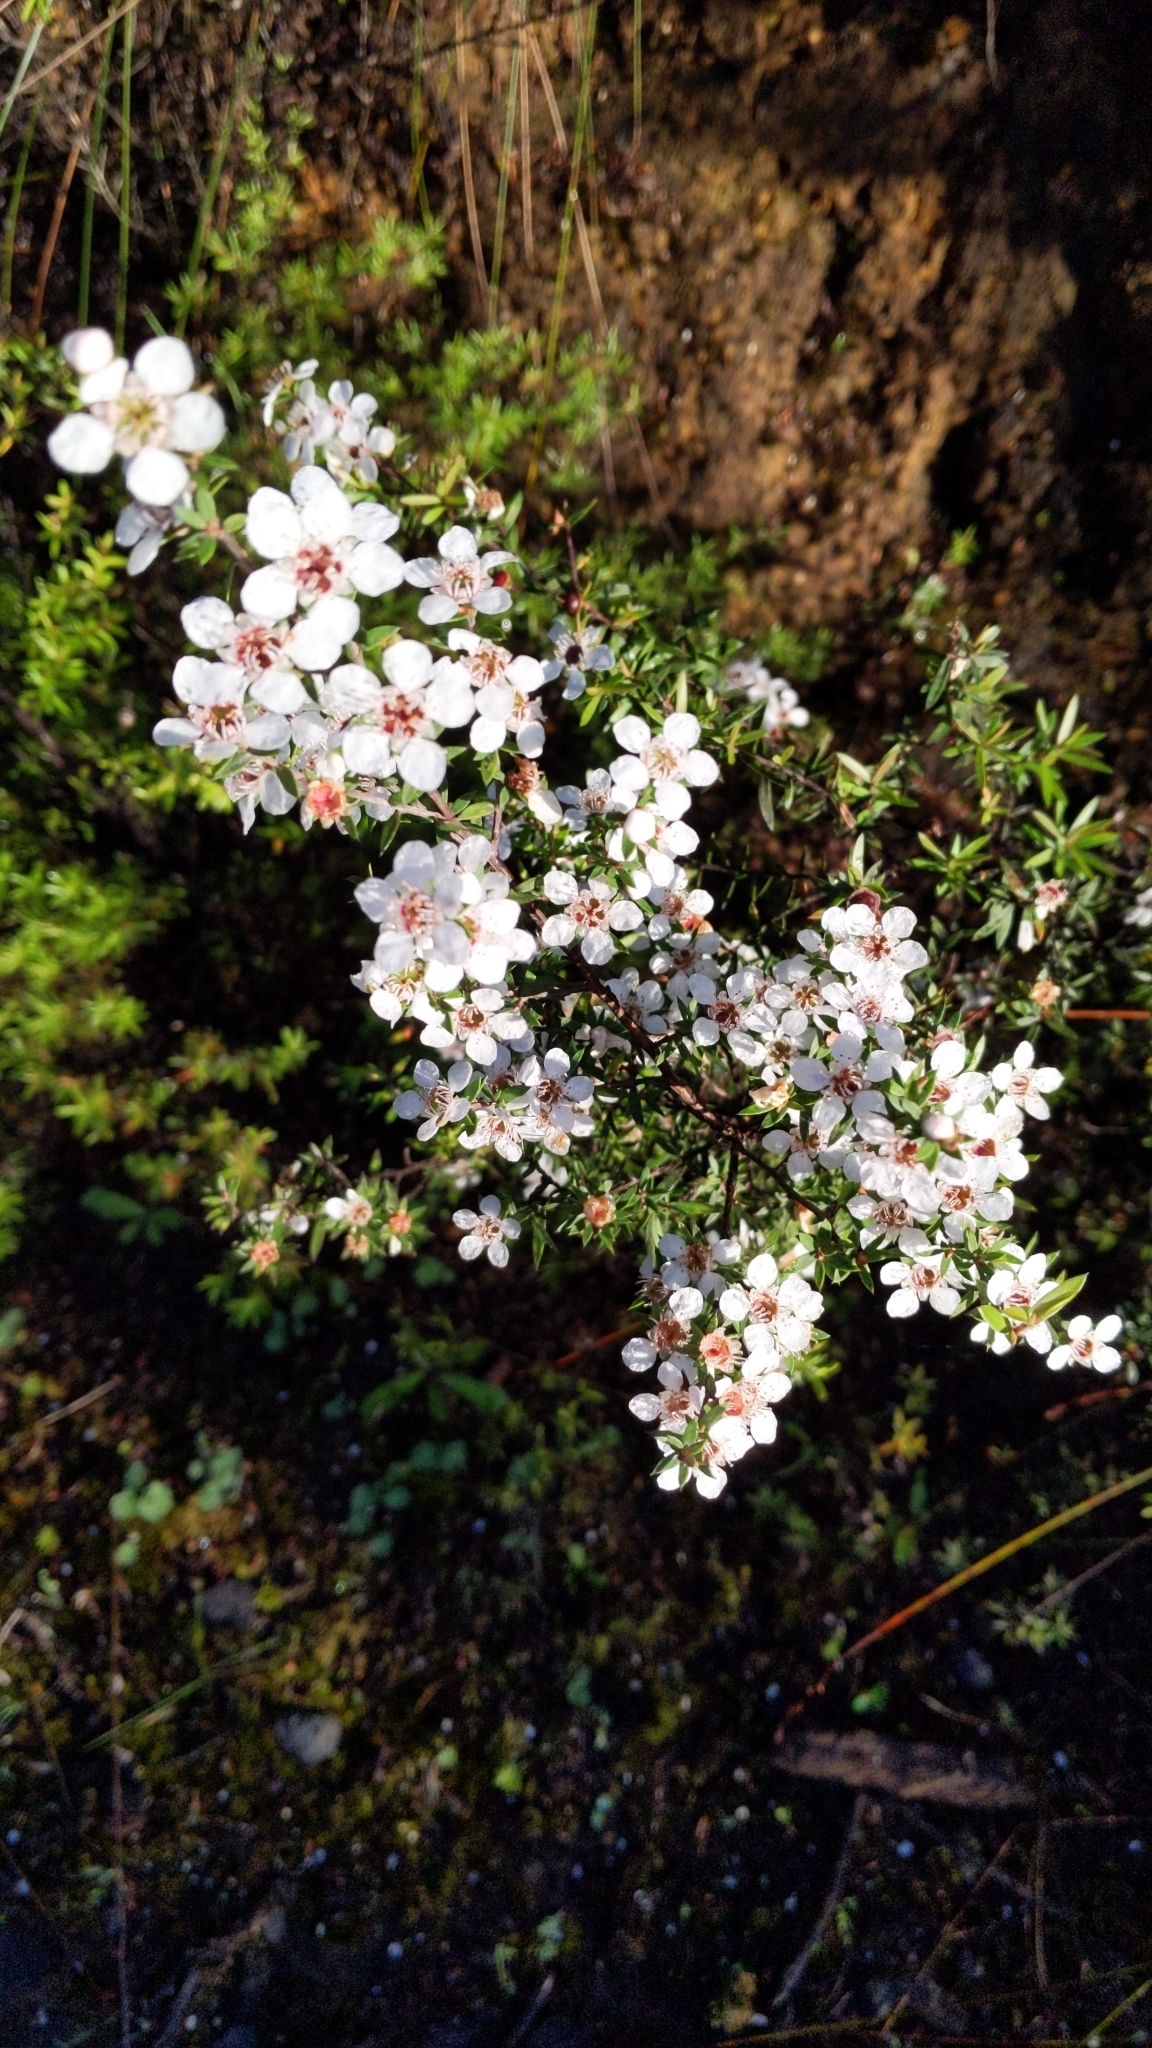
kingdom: Plantae
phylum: Tracheophyta
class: Magnoliopsida
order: Myrtales
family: Myrtaceae
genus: Leptospermum
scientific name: Leptospermum scoparium
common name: Broom tea-tree
